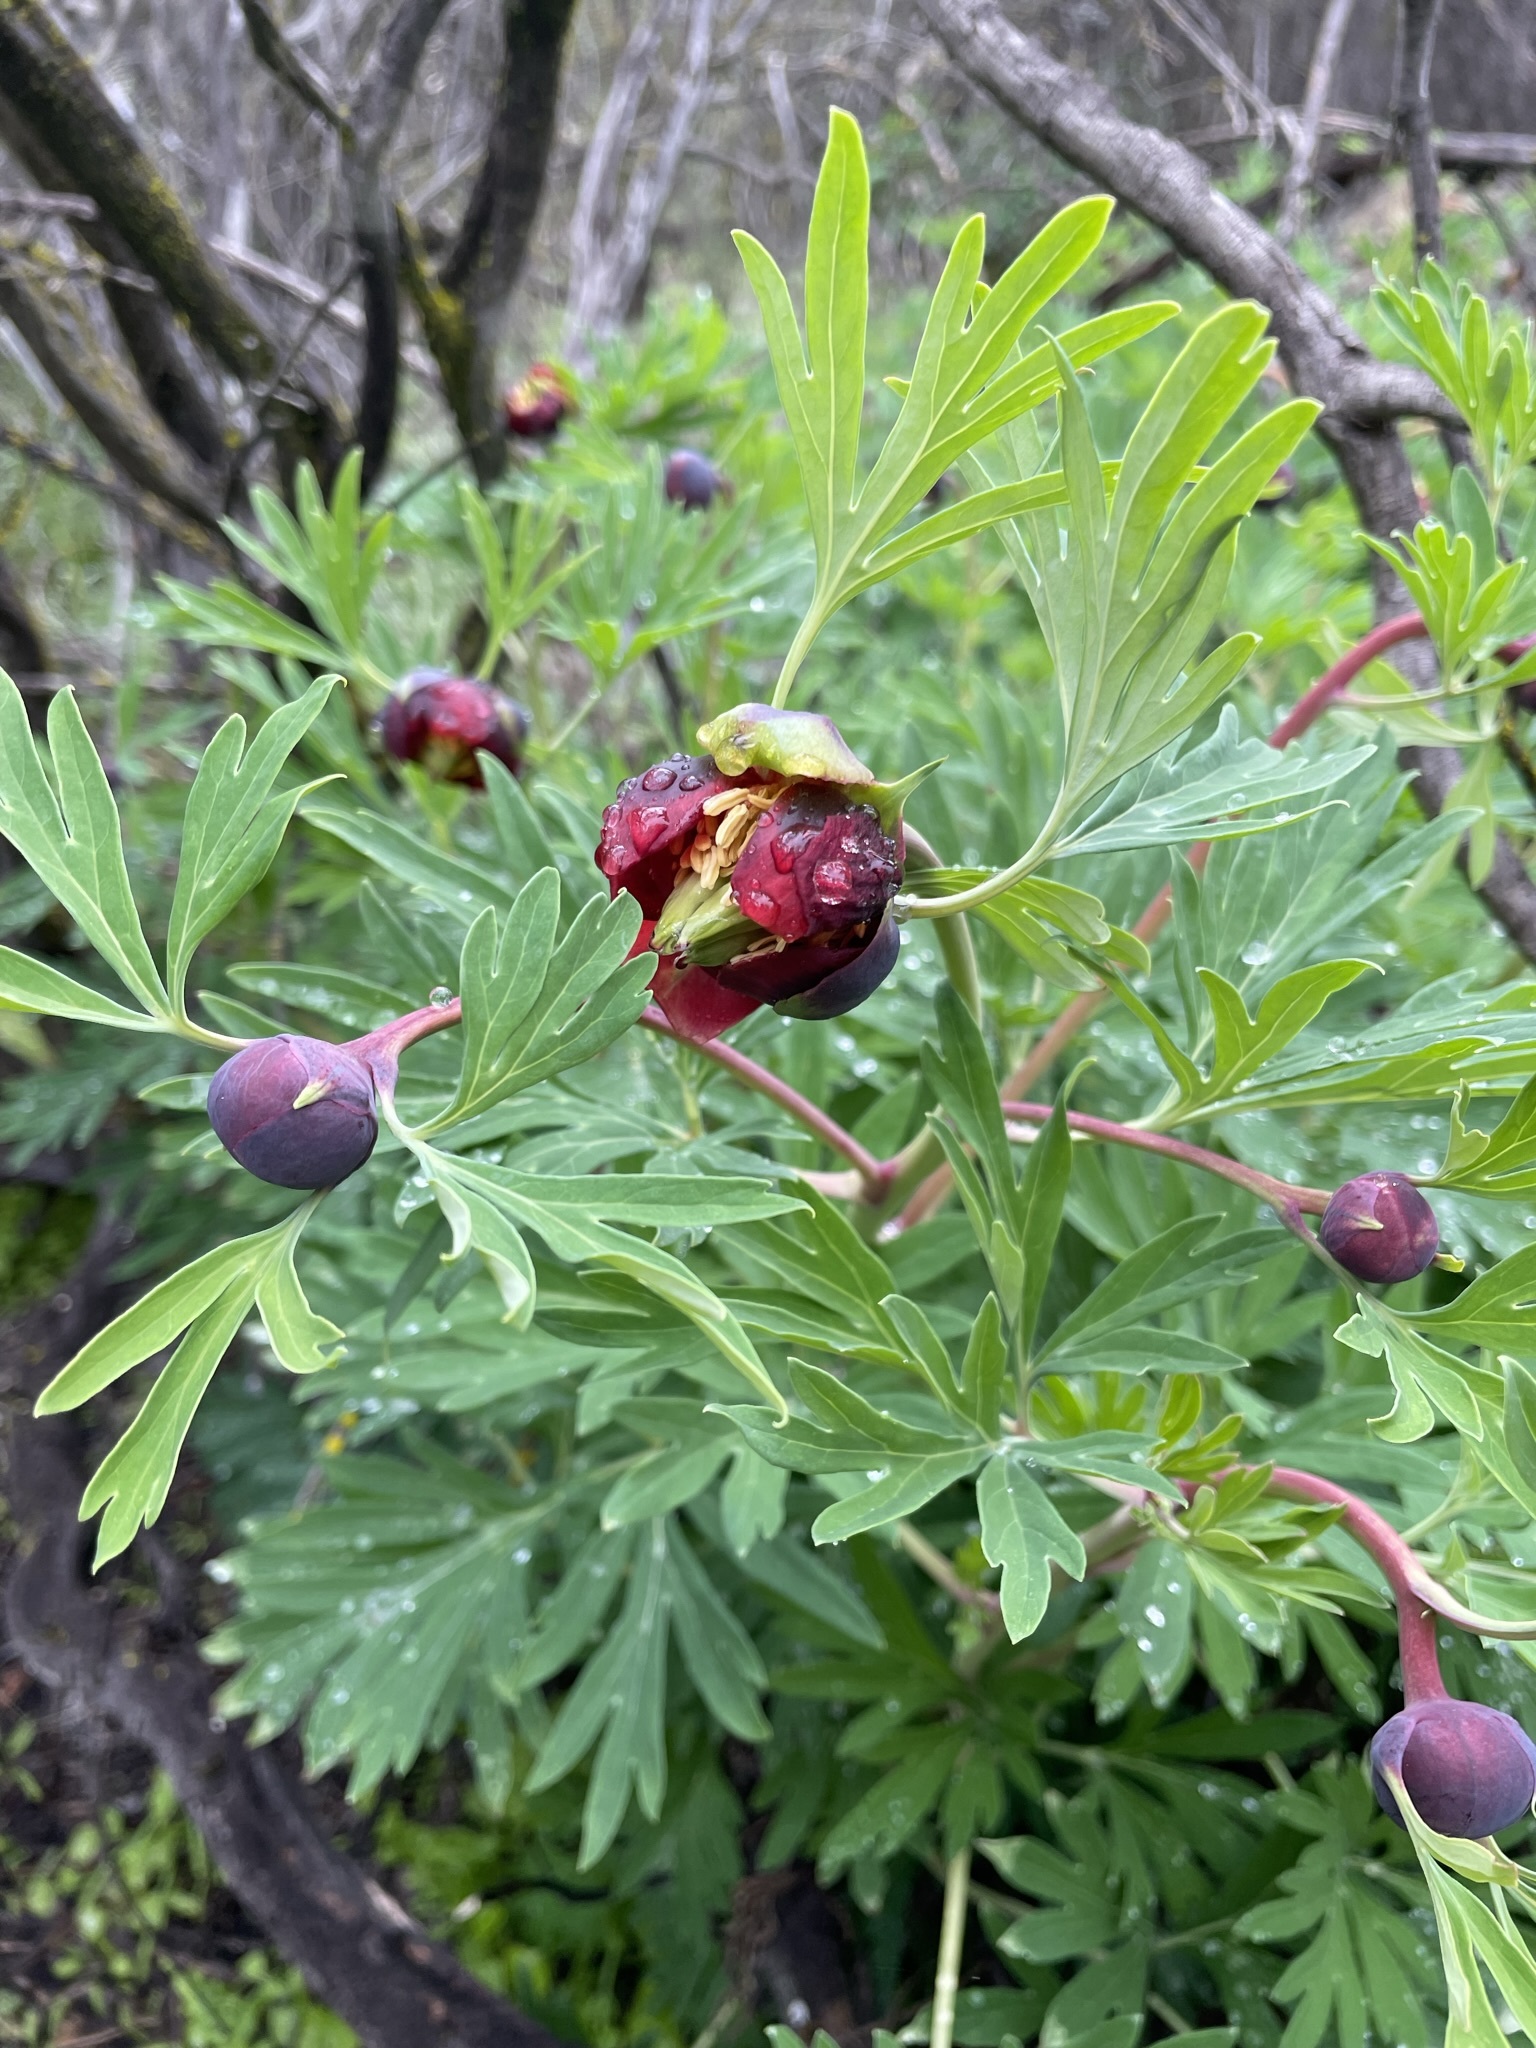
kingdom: Plantae
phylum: Tracheophyta
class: Magnoliopsida
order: Saxifragales
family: Paeoniaceae
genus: Paeonia
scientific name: Paeonia californica
